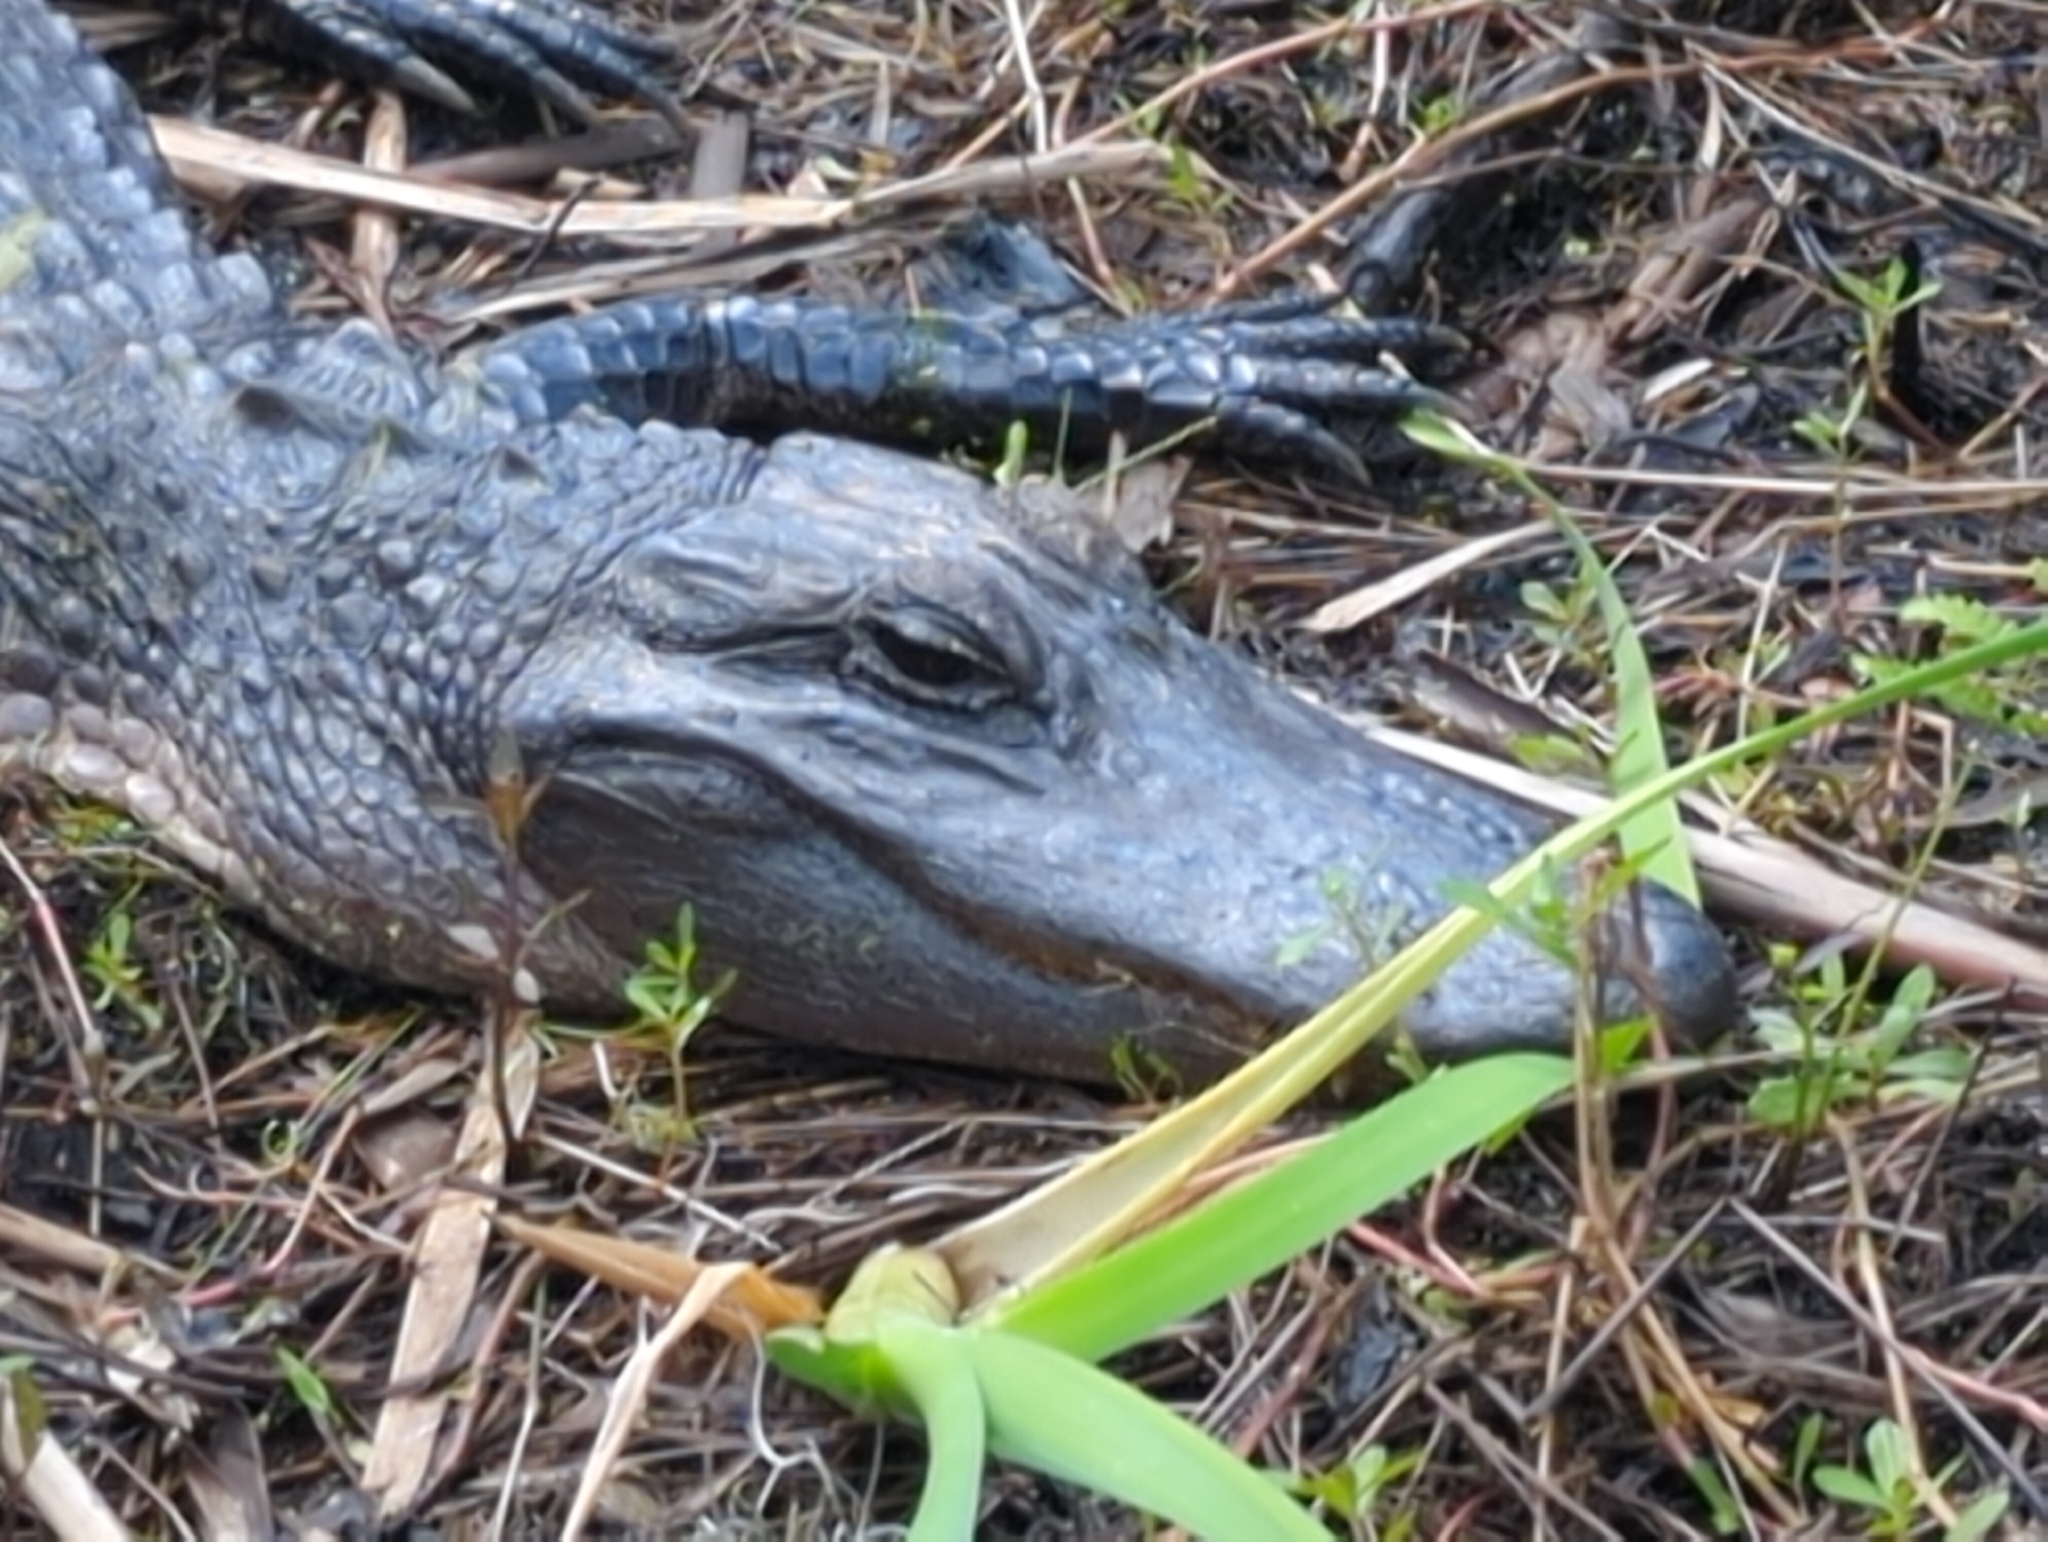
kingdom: Animalia
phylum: Chordata
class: Crocodylia
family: Alligatoridae
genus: Alligator
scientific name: Alligator mississippiensis
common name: American alligator
